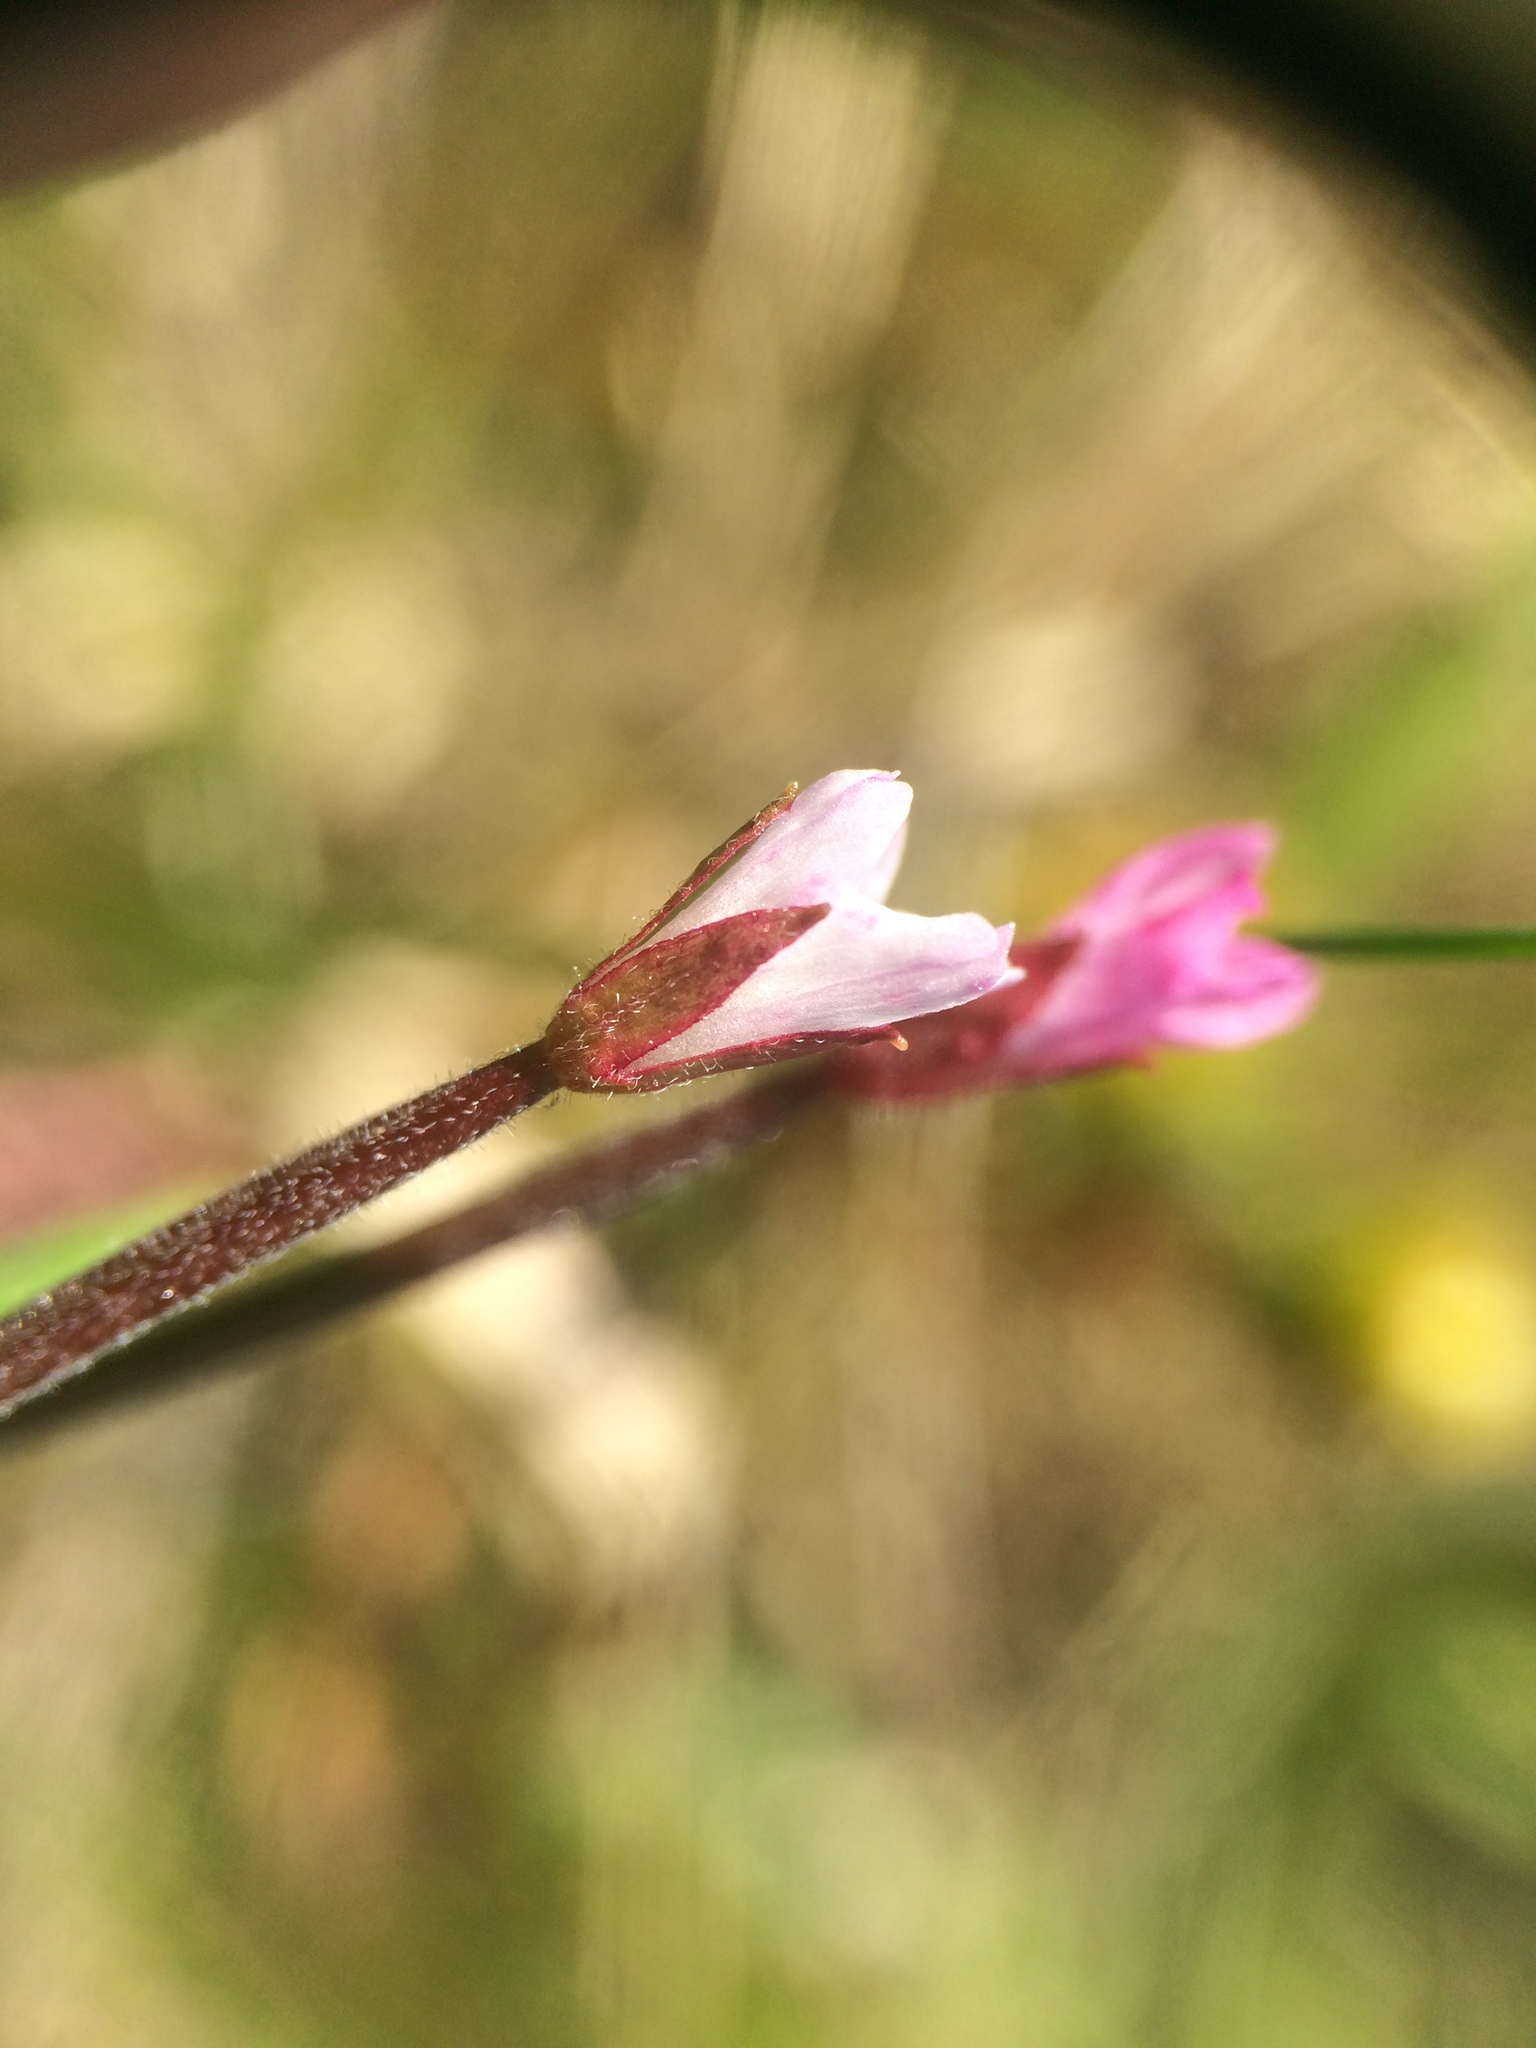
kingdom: Plantae
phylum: Tracheophyta
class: Magnoliopsida
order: Myrtales
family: Onagraceae
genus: Epilobium
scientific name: Epilobium coloratum
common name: Bronze willowherb
